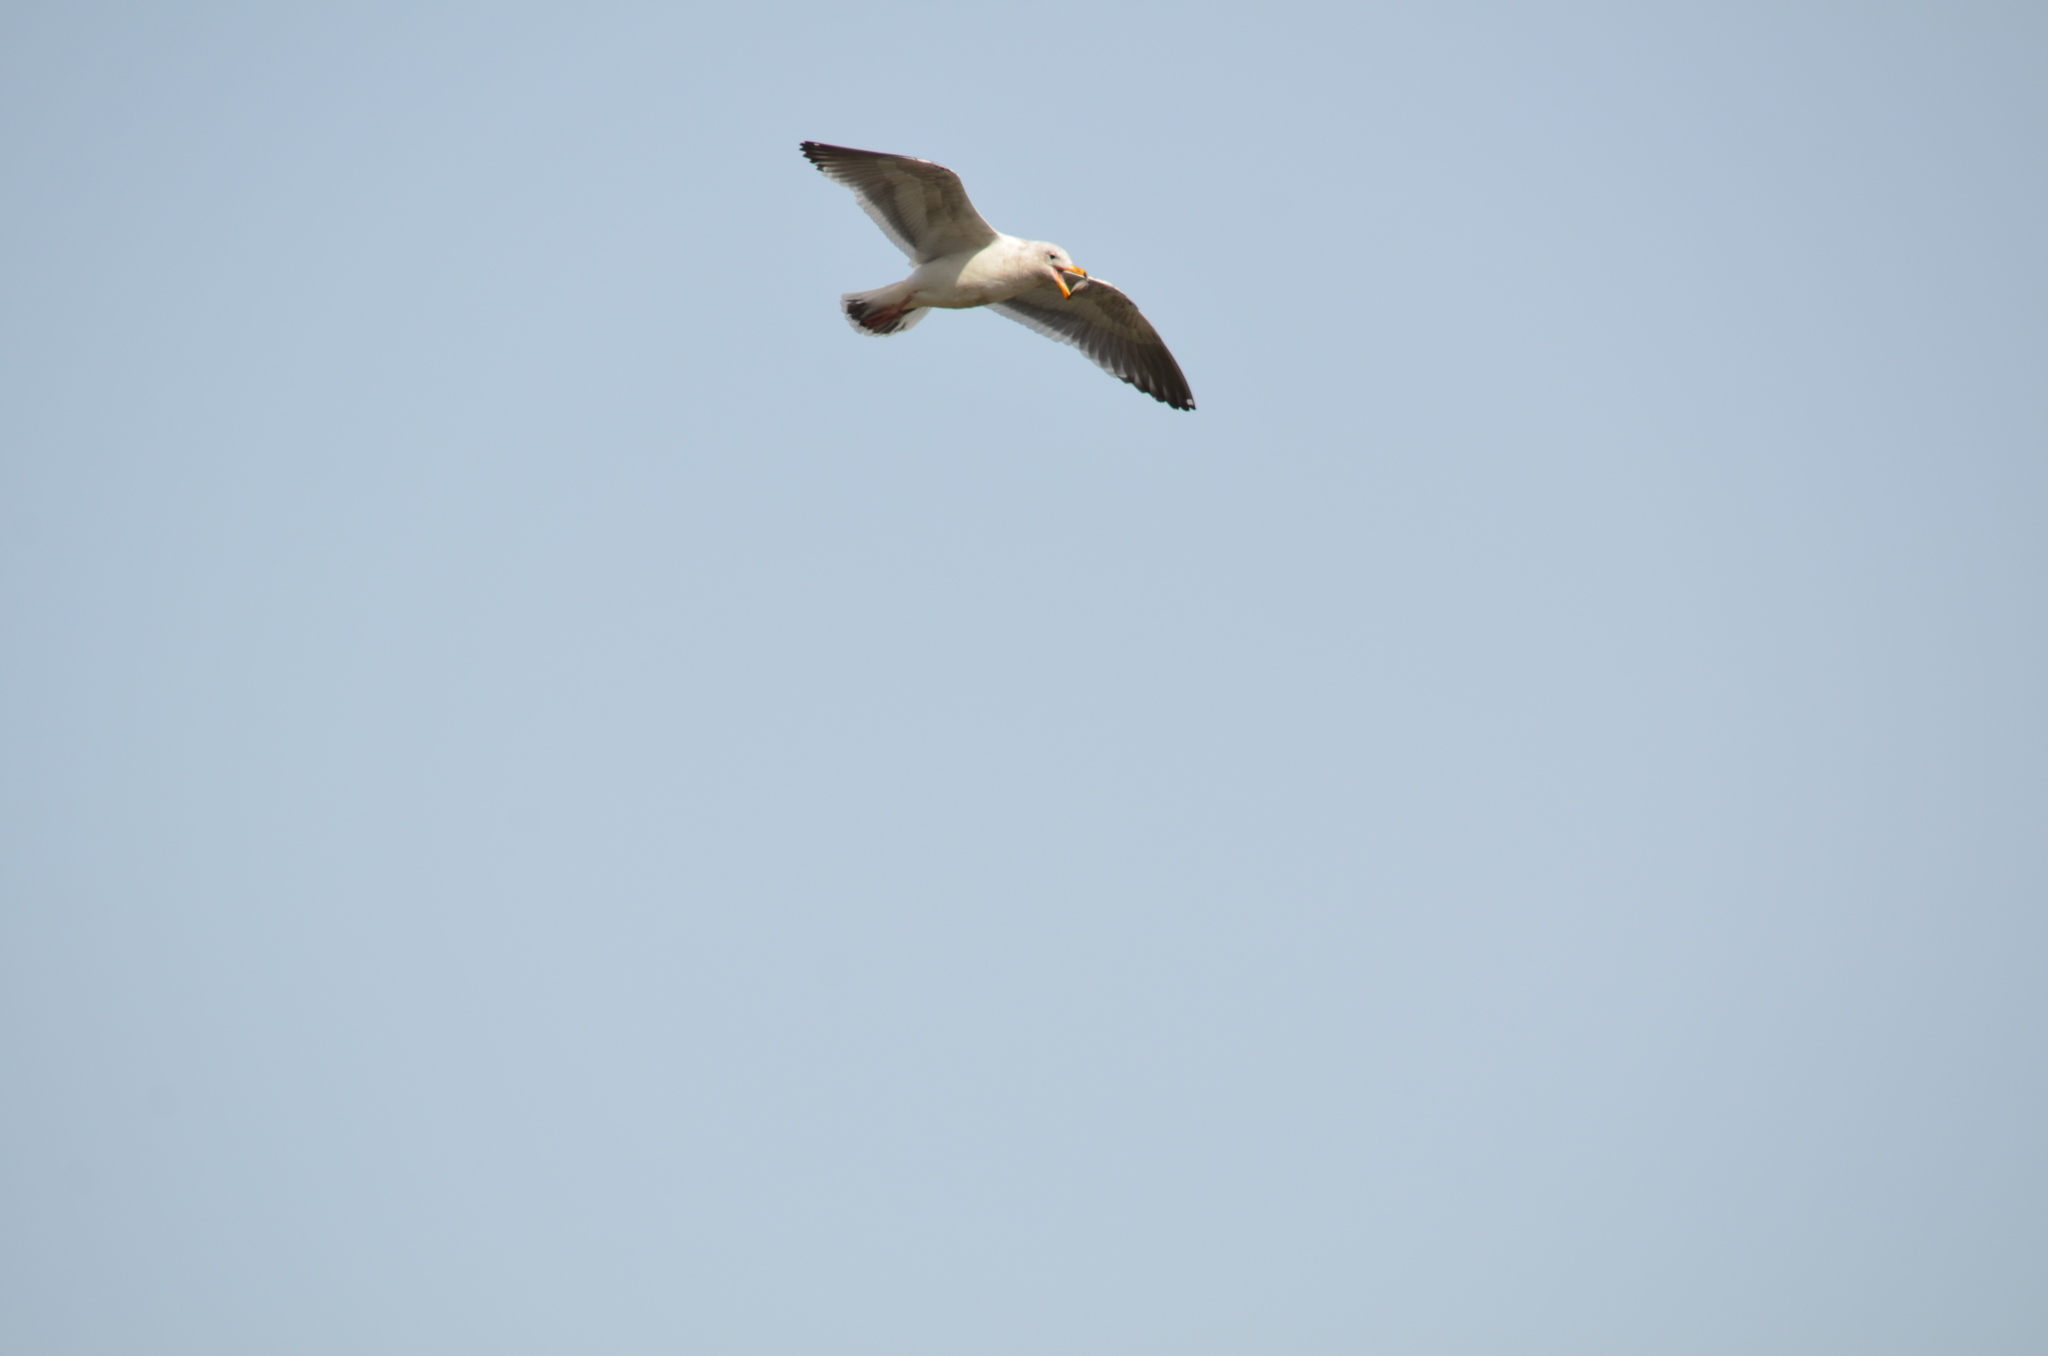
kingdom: Animalia
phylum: Chordata
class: Aves
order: Charadriiformes
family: Laridae
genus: Larus
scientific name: Larus
